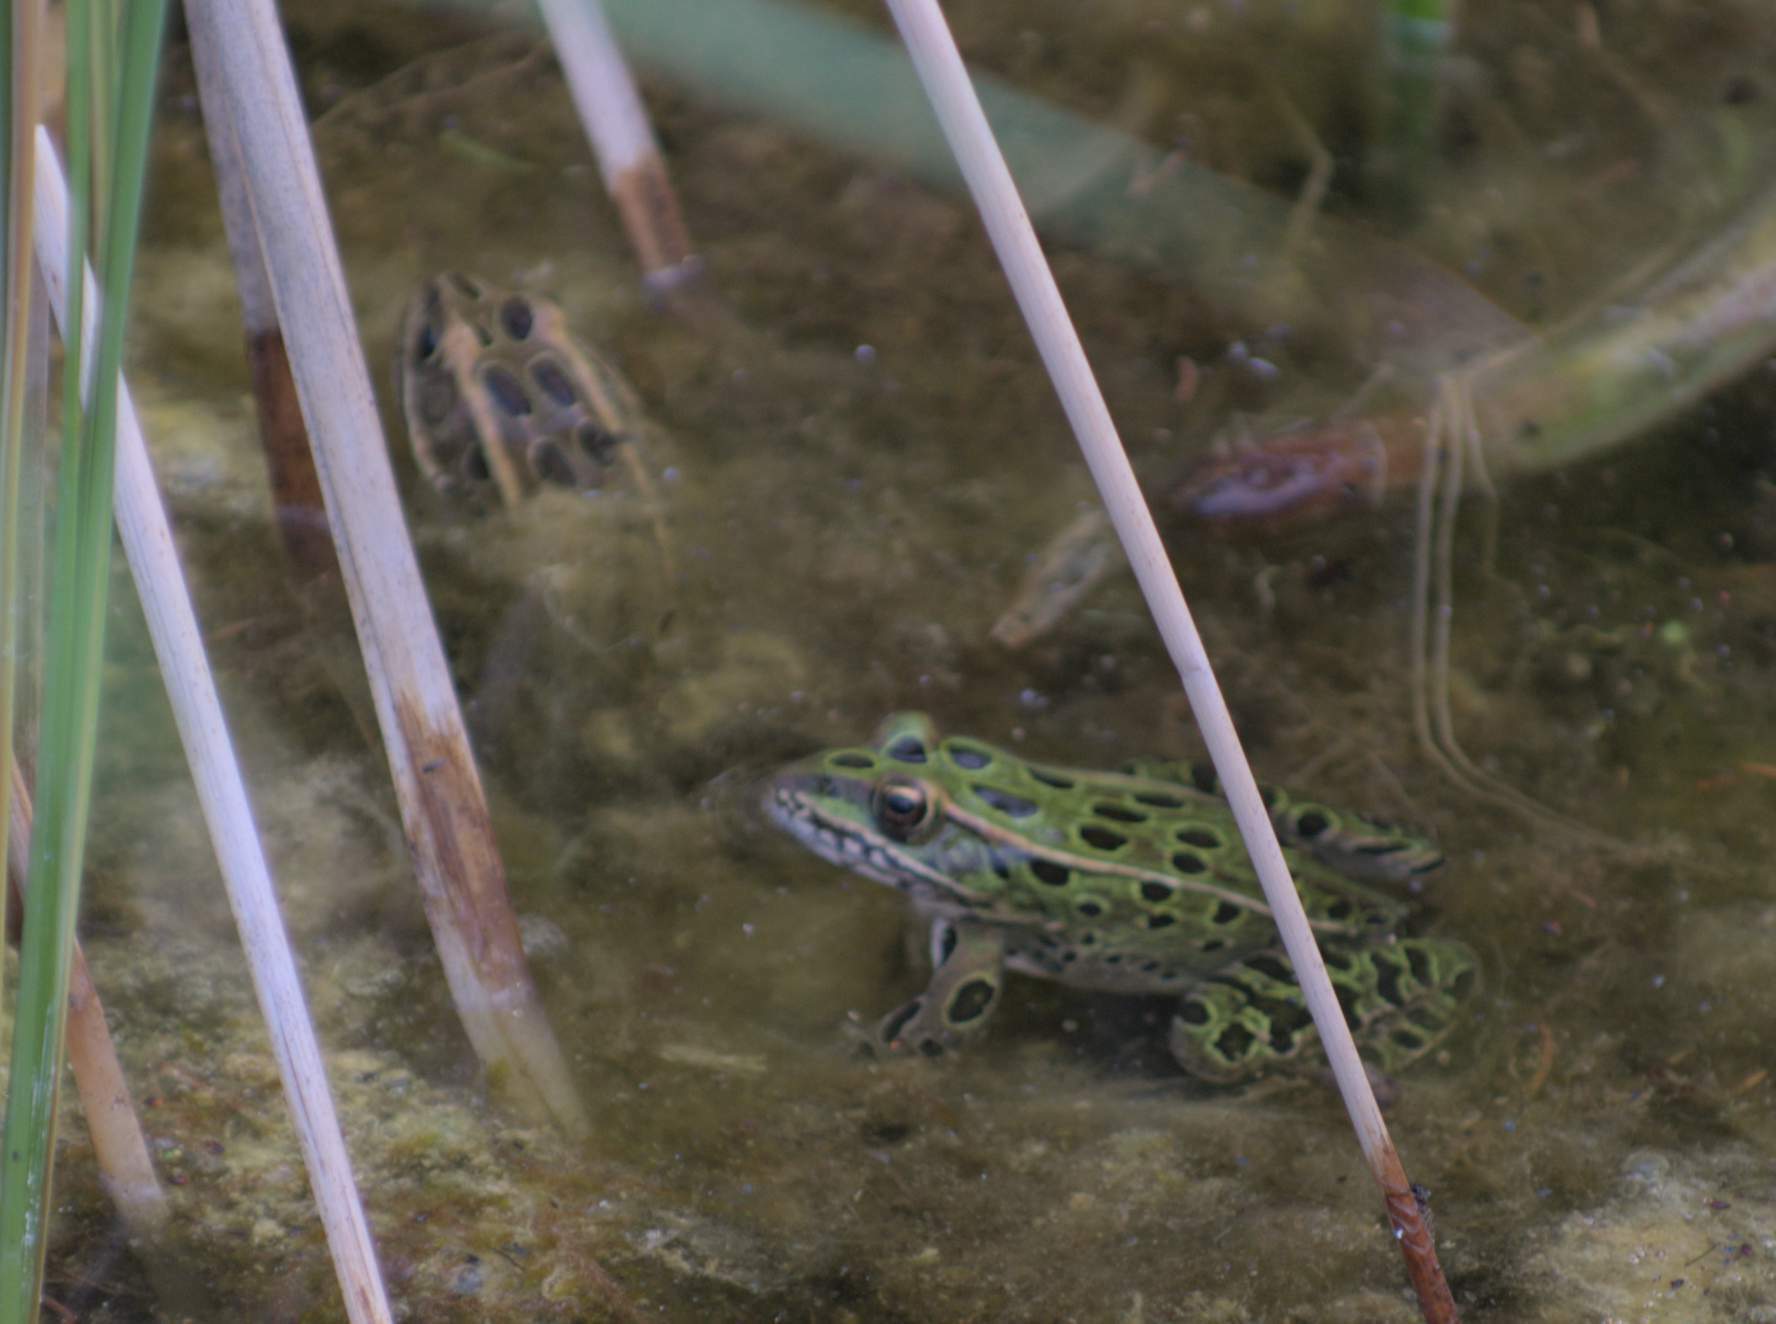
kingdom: Animalia
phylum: Chordata
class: Amphibia
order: Anura
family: Ranidae
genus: Lithobates
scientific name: Lithobates pipiens
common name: Northern leopard frog
